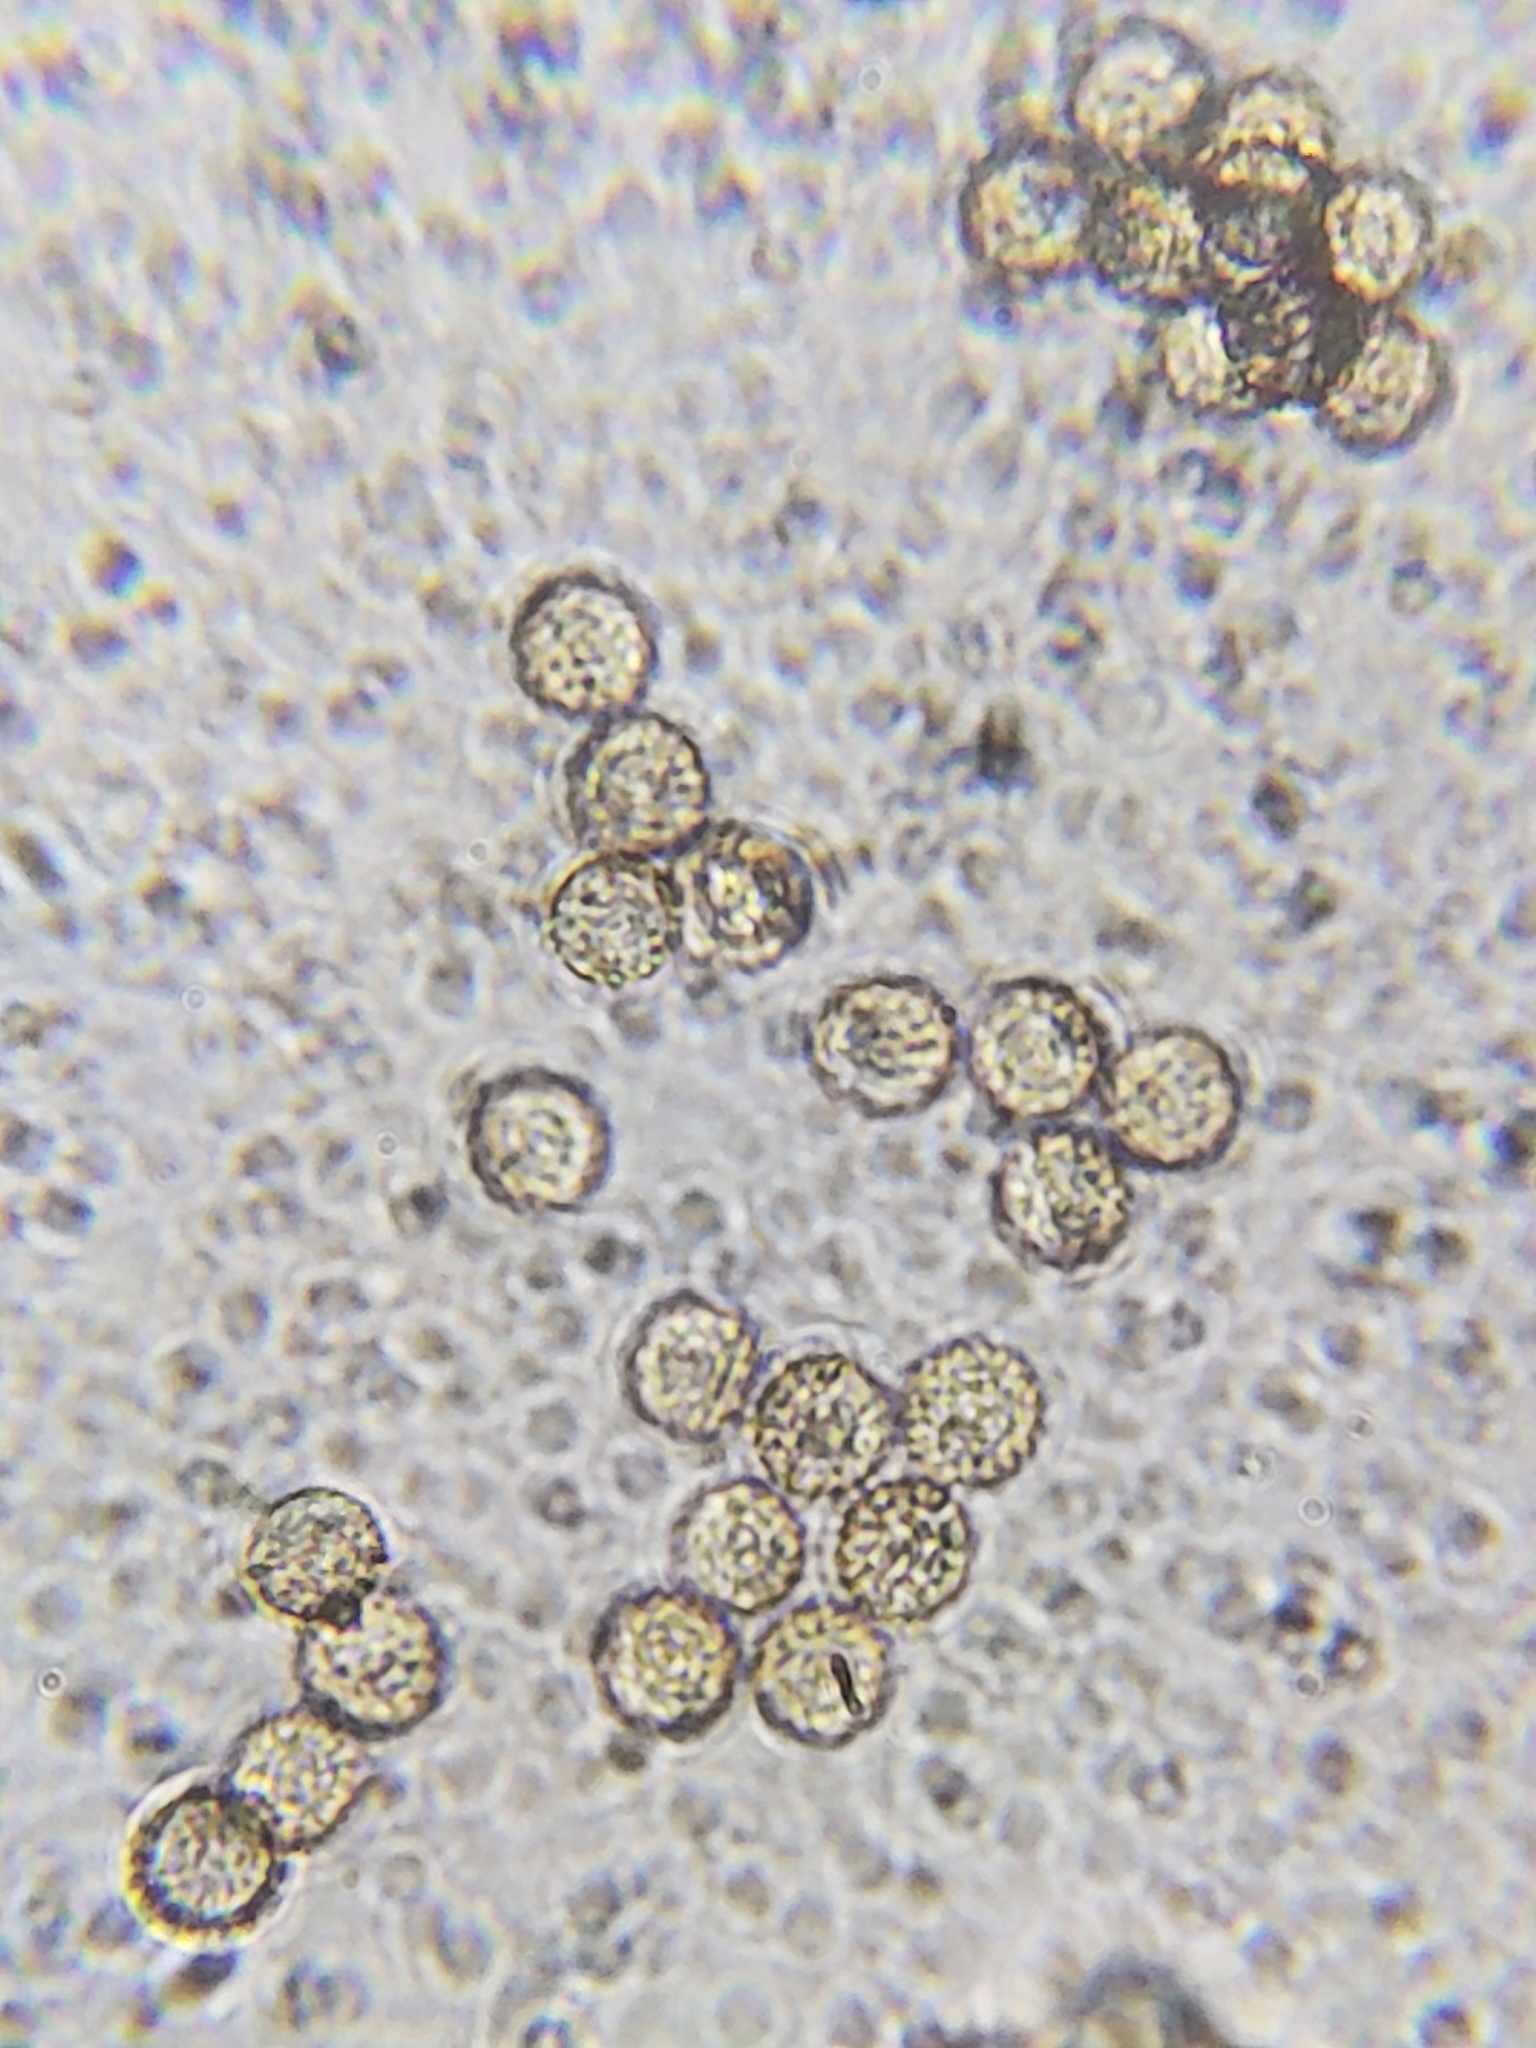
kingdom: Protozoa
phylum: Mycetozoa
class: Myxomycetes
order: Cribrariales
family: Tubiferaceae
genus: Reticularia
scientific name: Reticularia splendens
